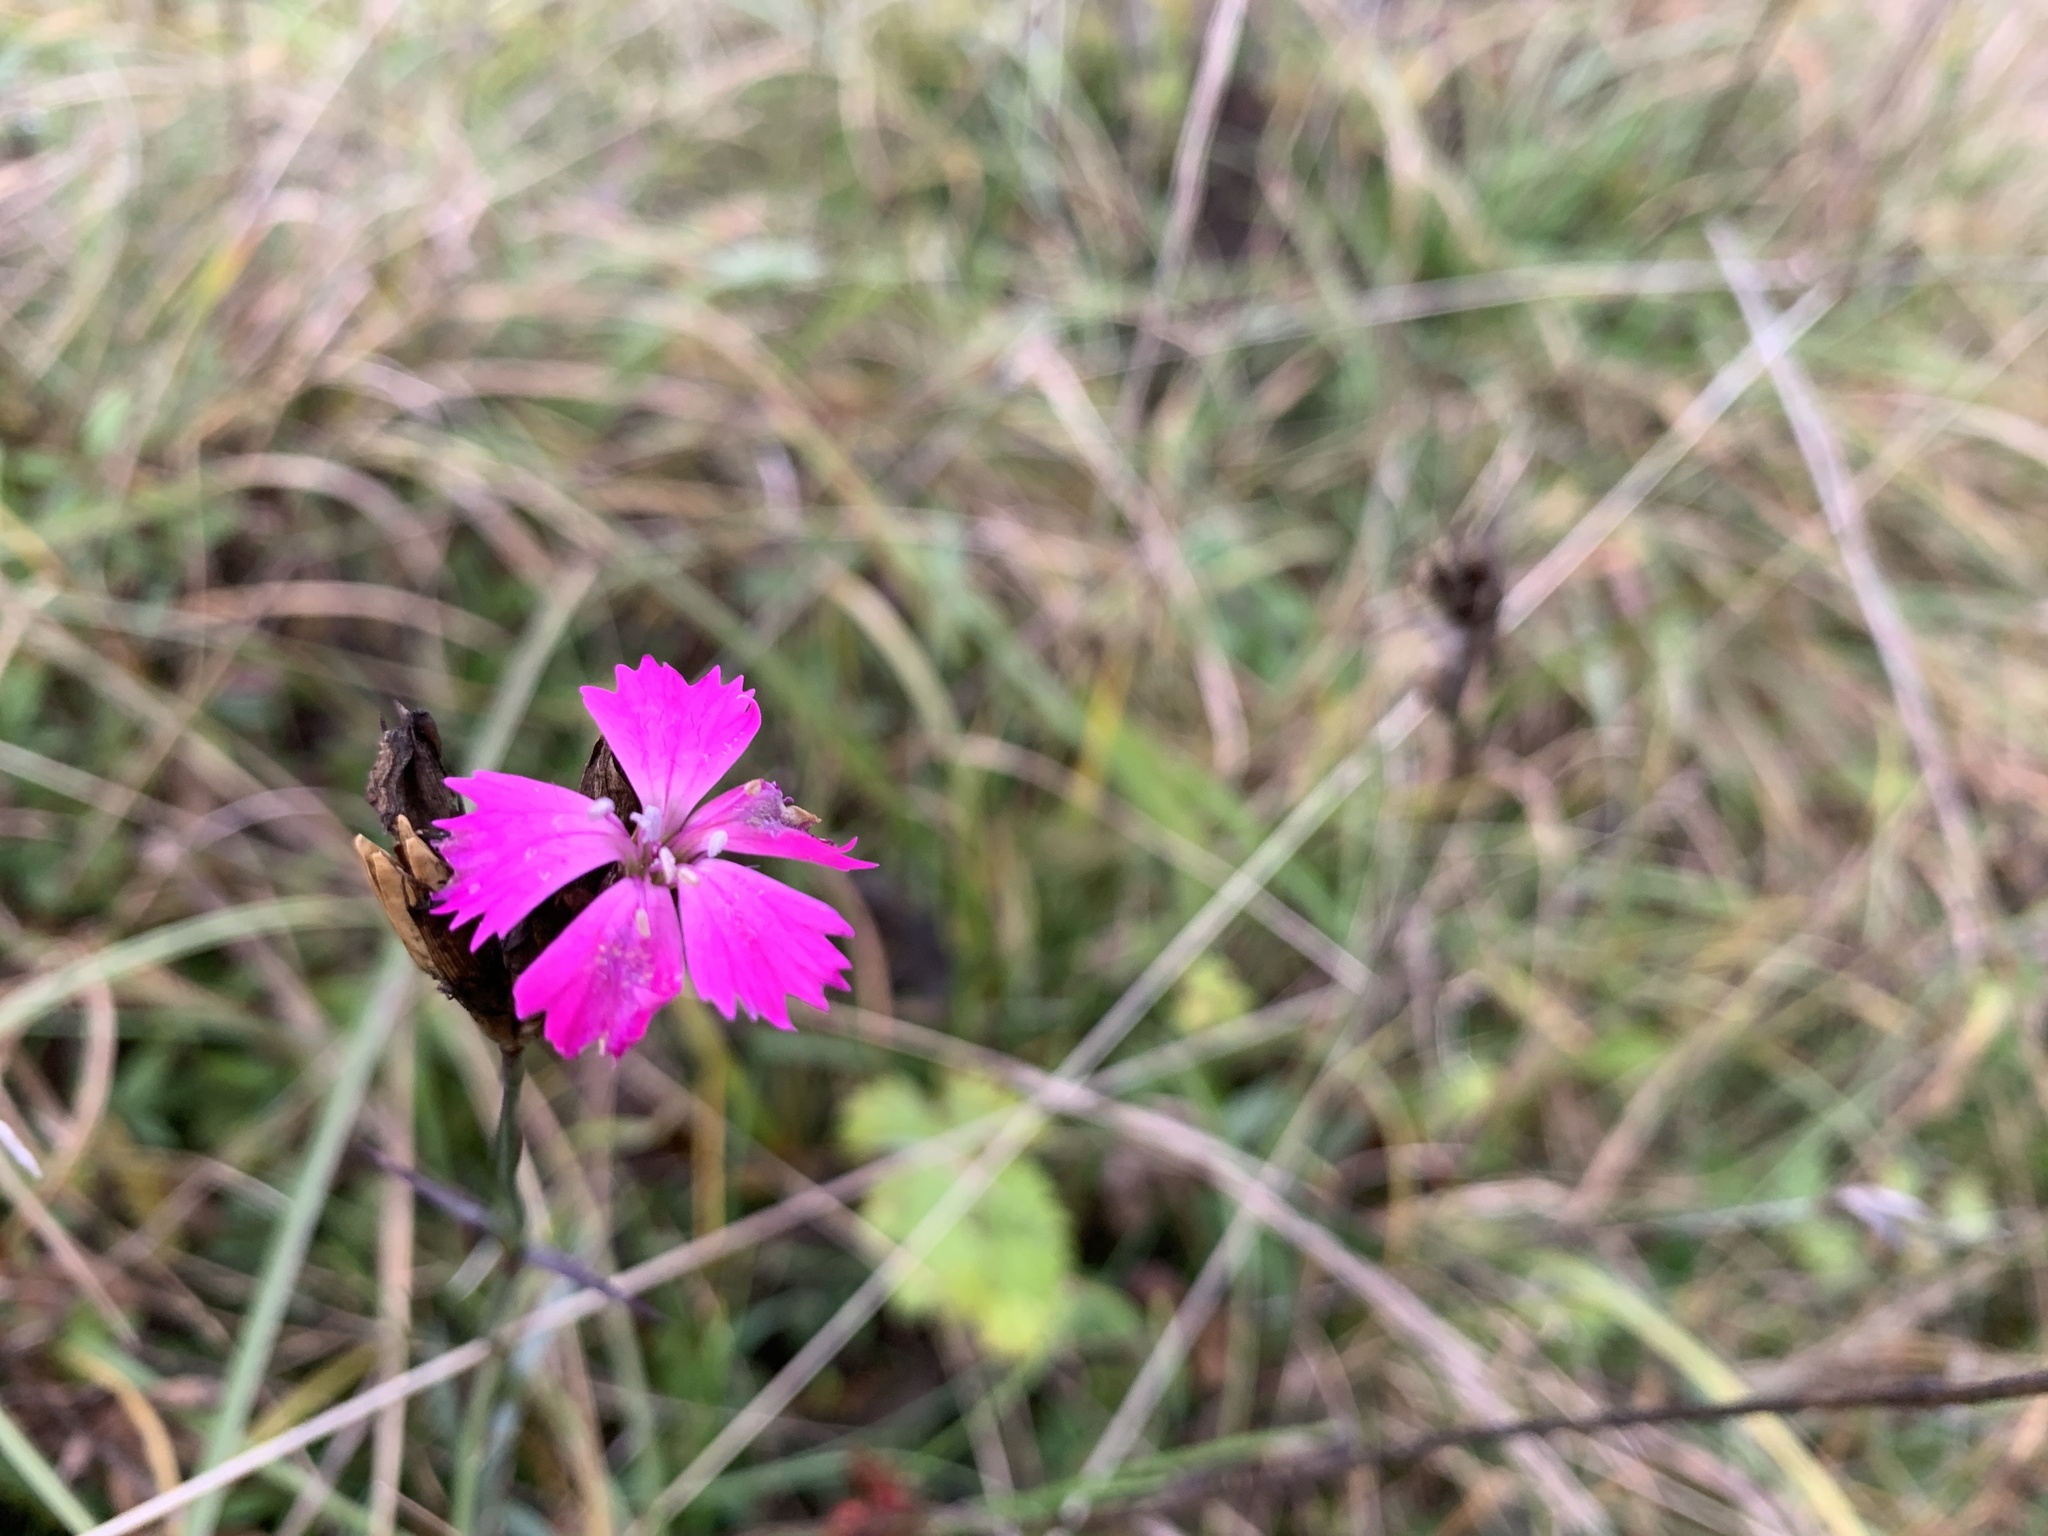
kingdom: Plantae
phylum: Tracheophyta
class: Magnoliopsida
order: Caryophyllales
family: Caryophyllaceae
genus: Dianthus
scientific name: Dianthus carthusianorum
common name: Carthusian pink
